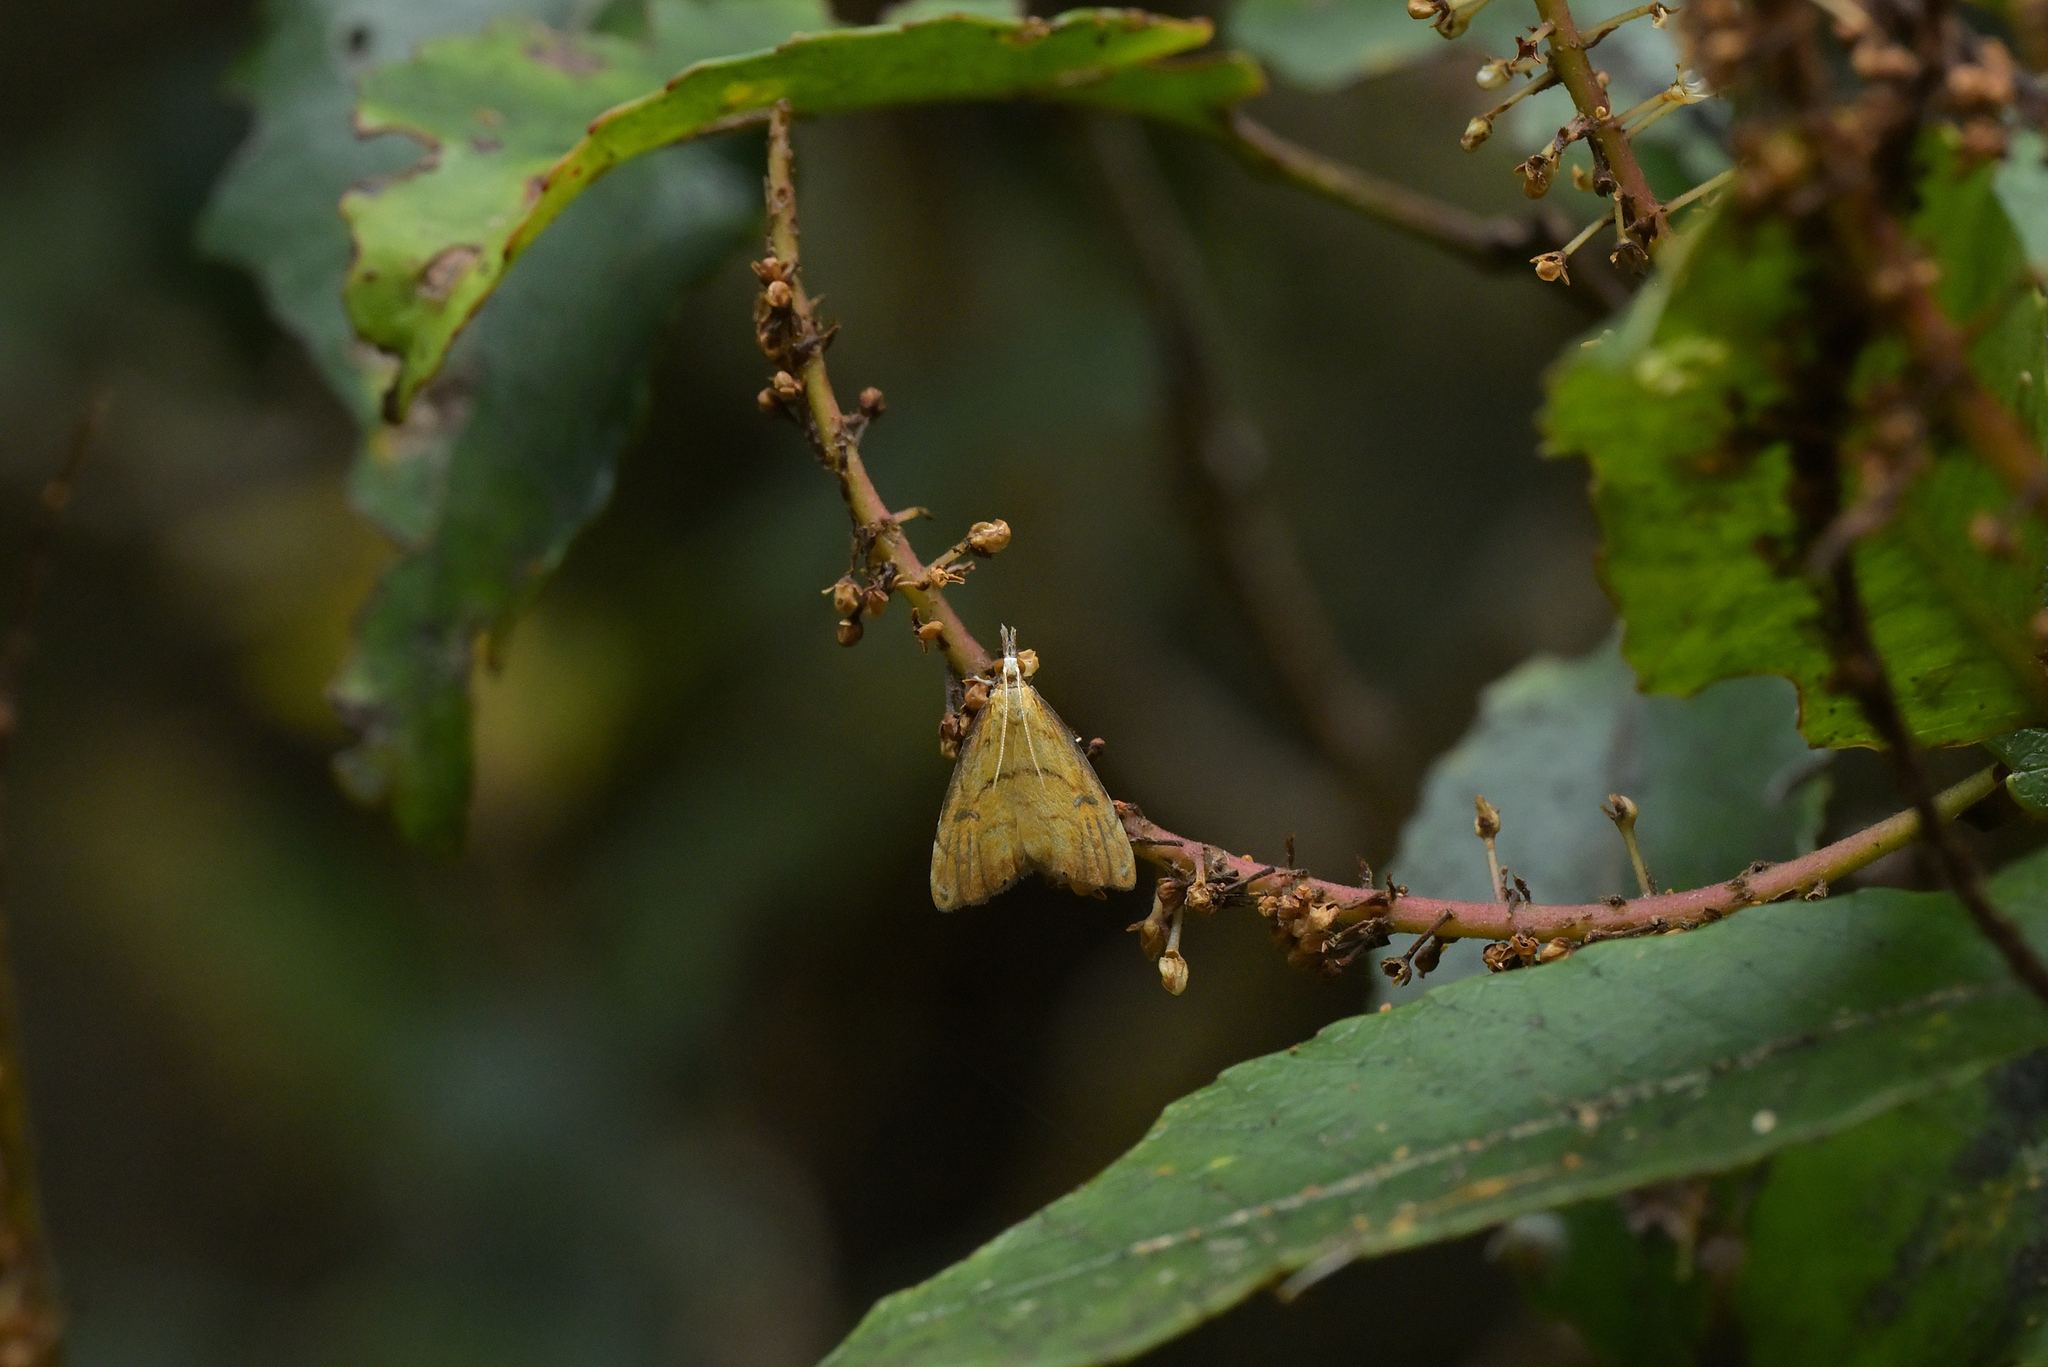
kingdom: Animalia
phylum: Arthropoda
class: Insecta
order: Lepidoptera
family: Crambidae
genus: Glaucocharis
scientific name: Glaucocharis metallifera
